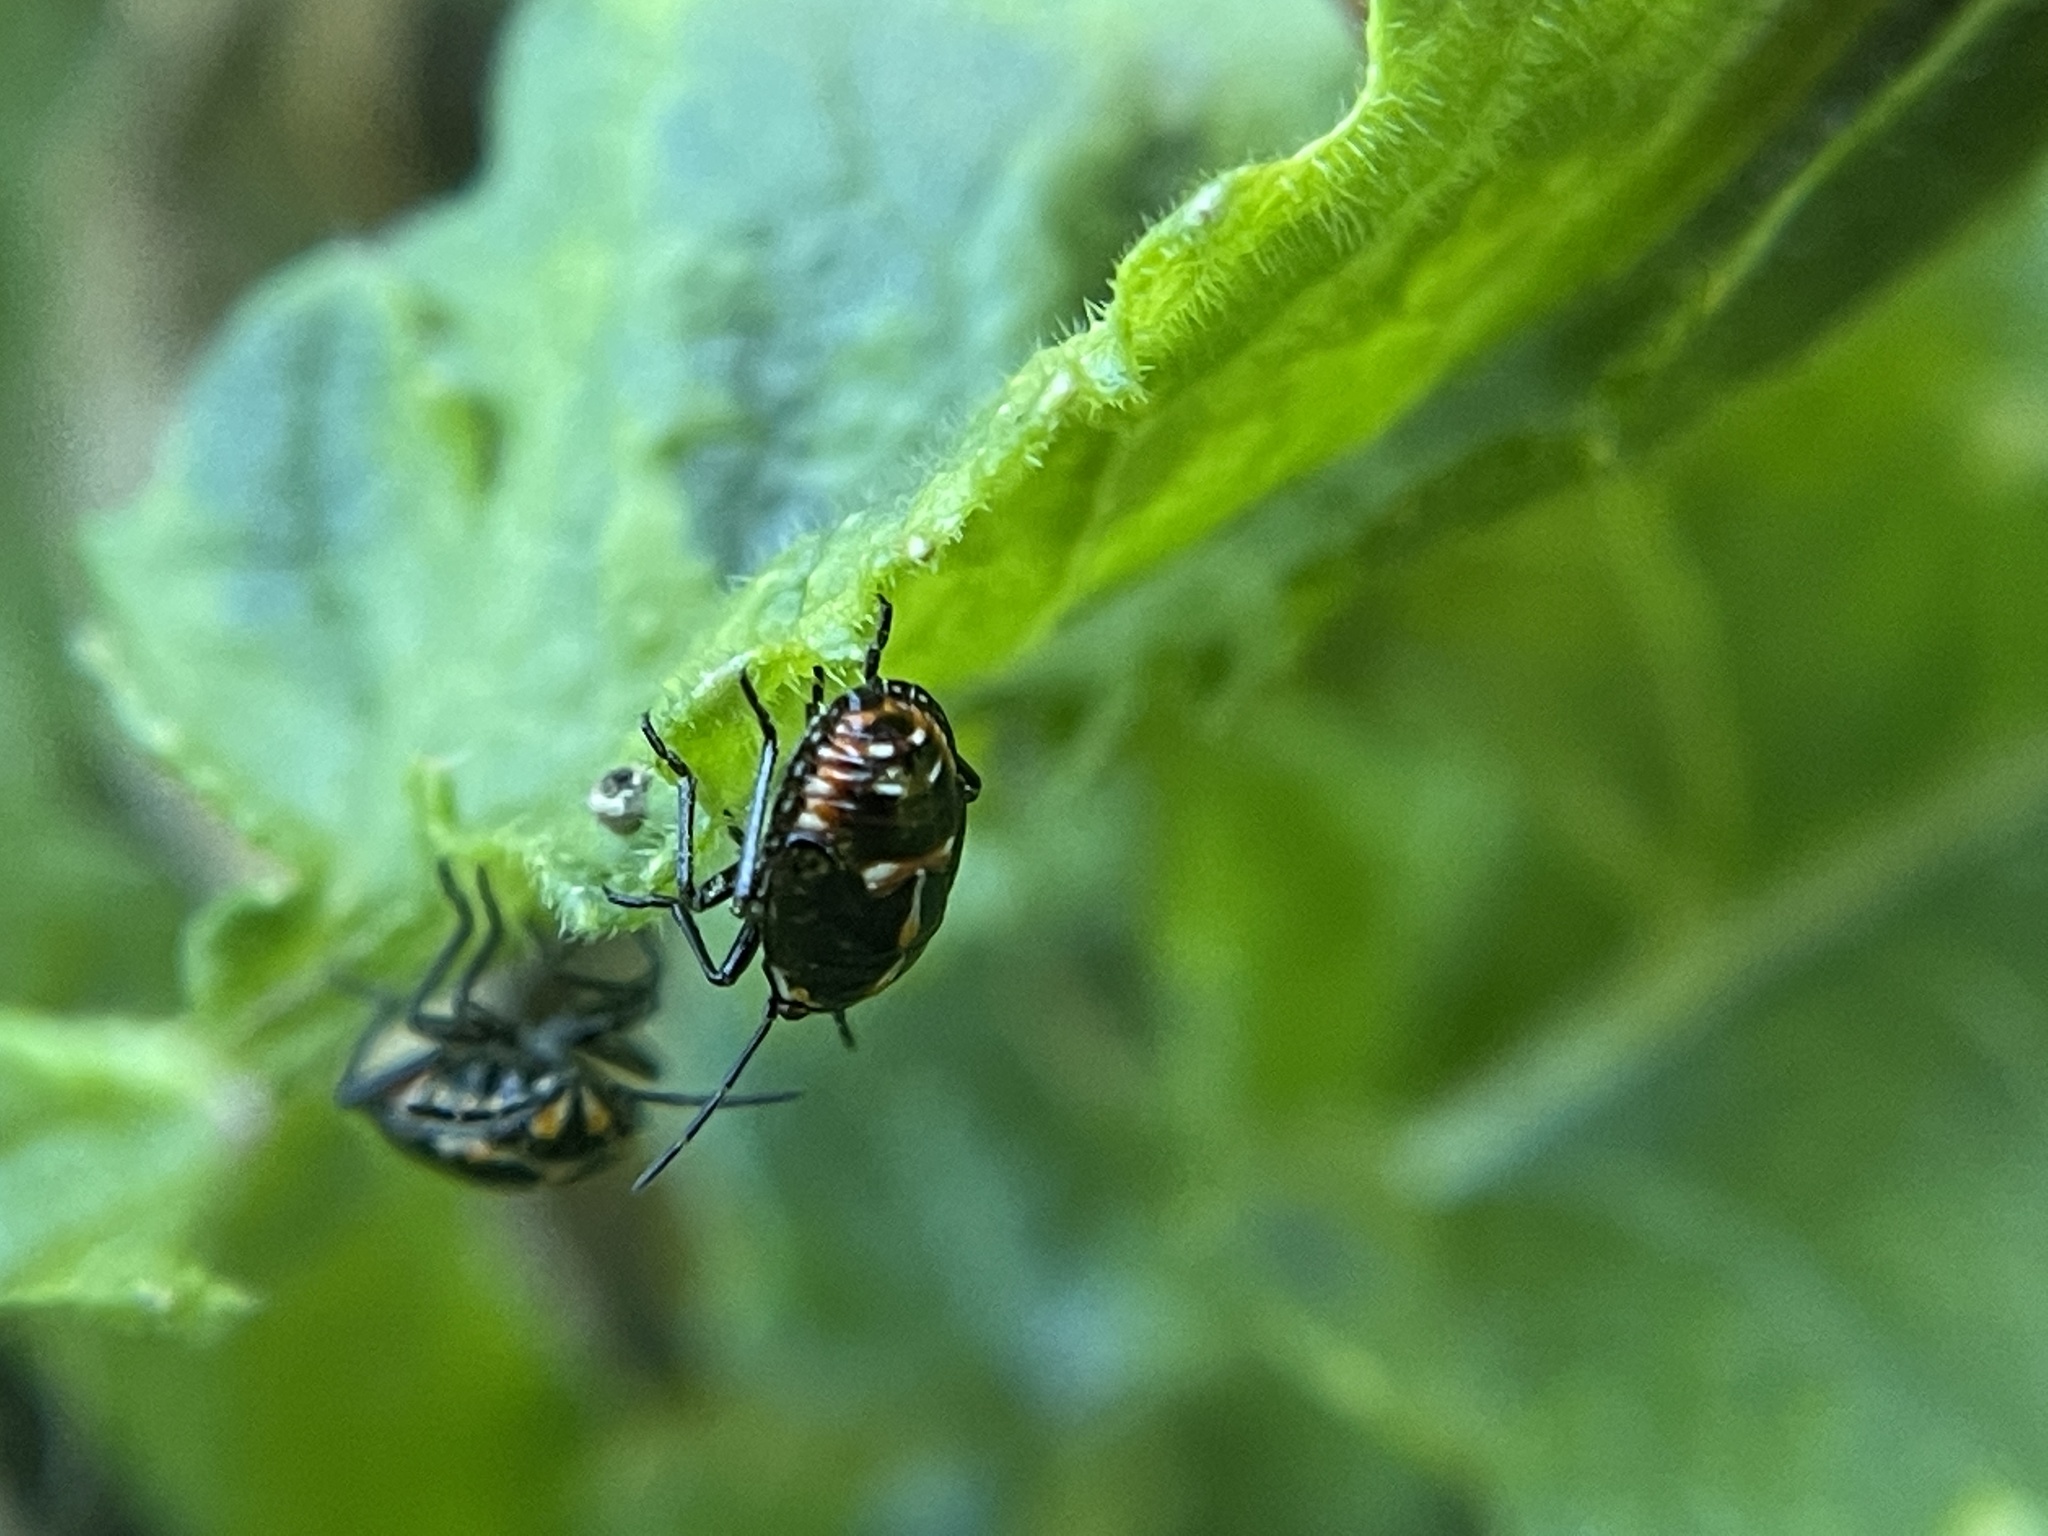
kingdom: Animalia
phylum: Arthropoda
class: Insecta
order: Hemiptera
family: Pentatomidae
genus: Bagrada
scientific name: Bagrada hilaris
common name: Bagrada bug
